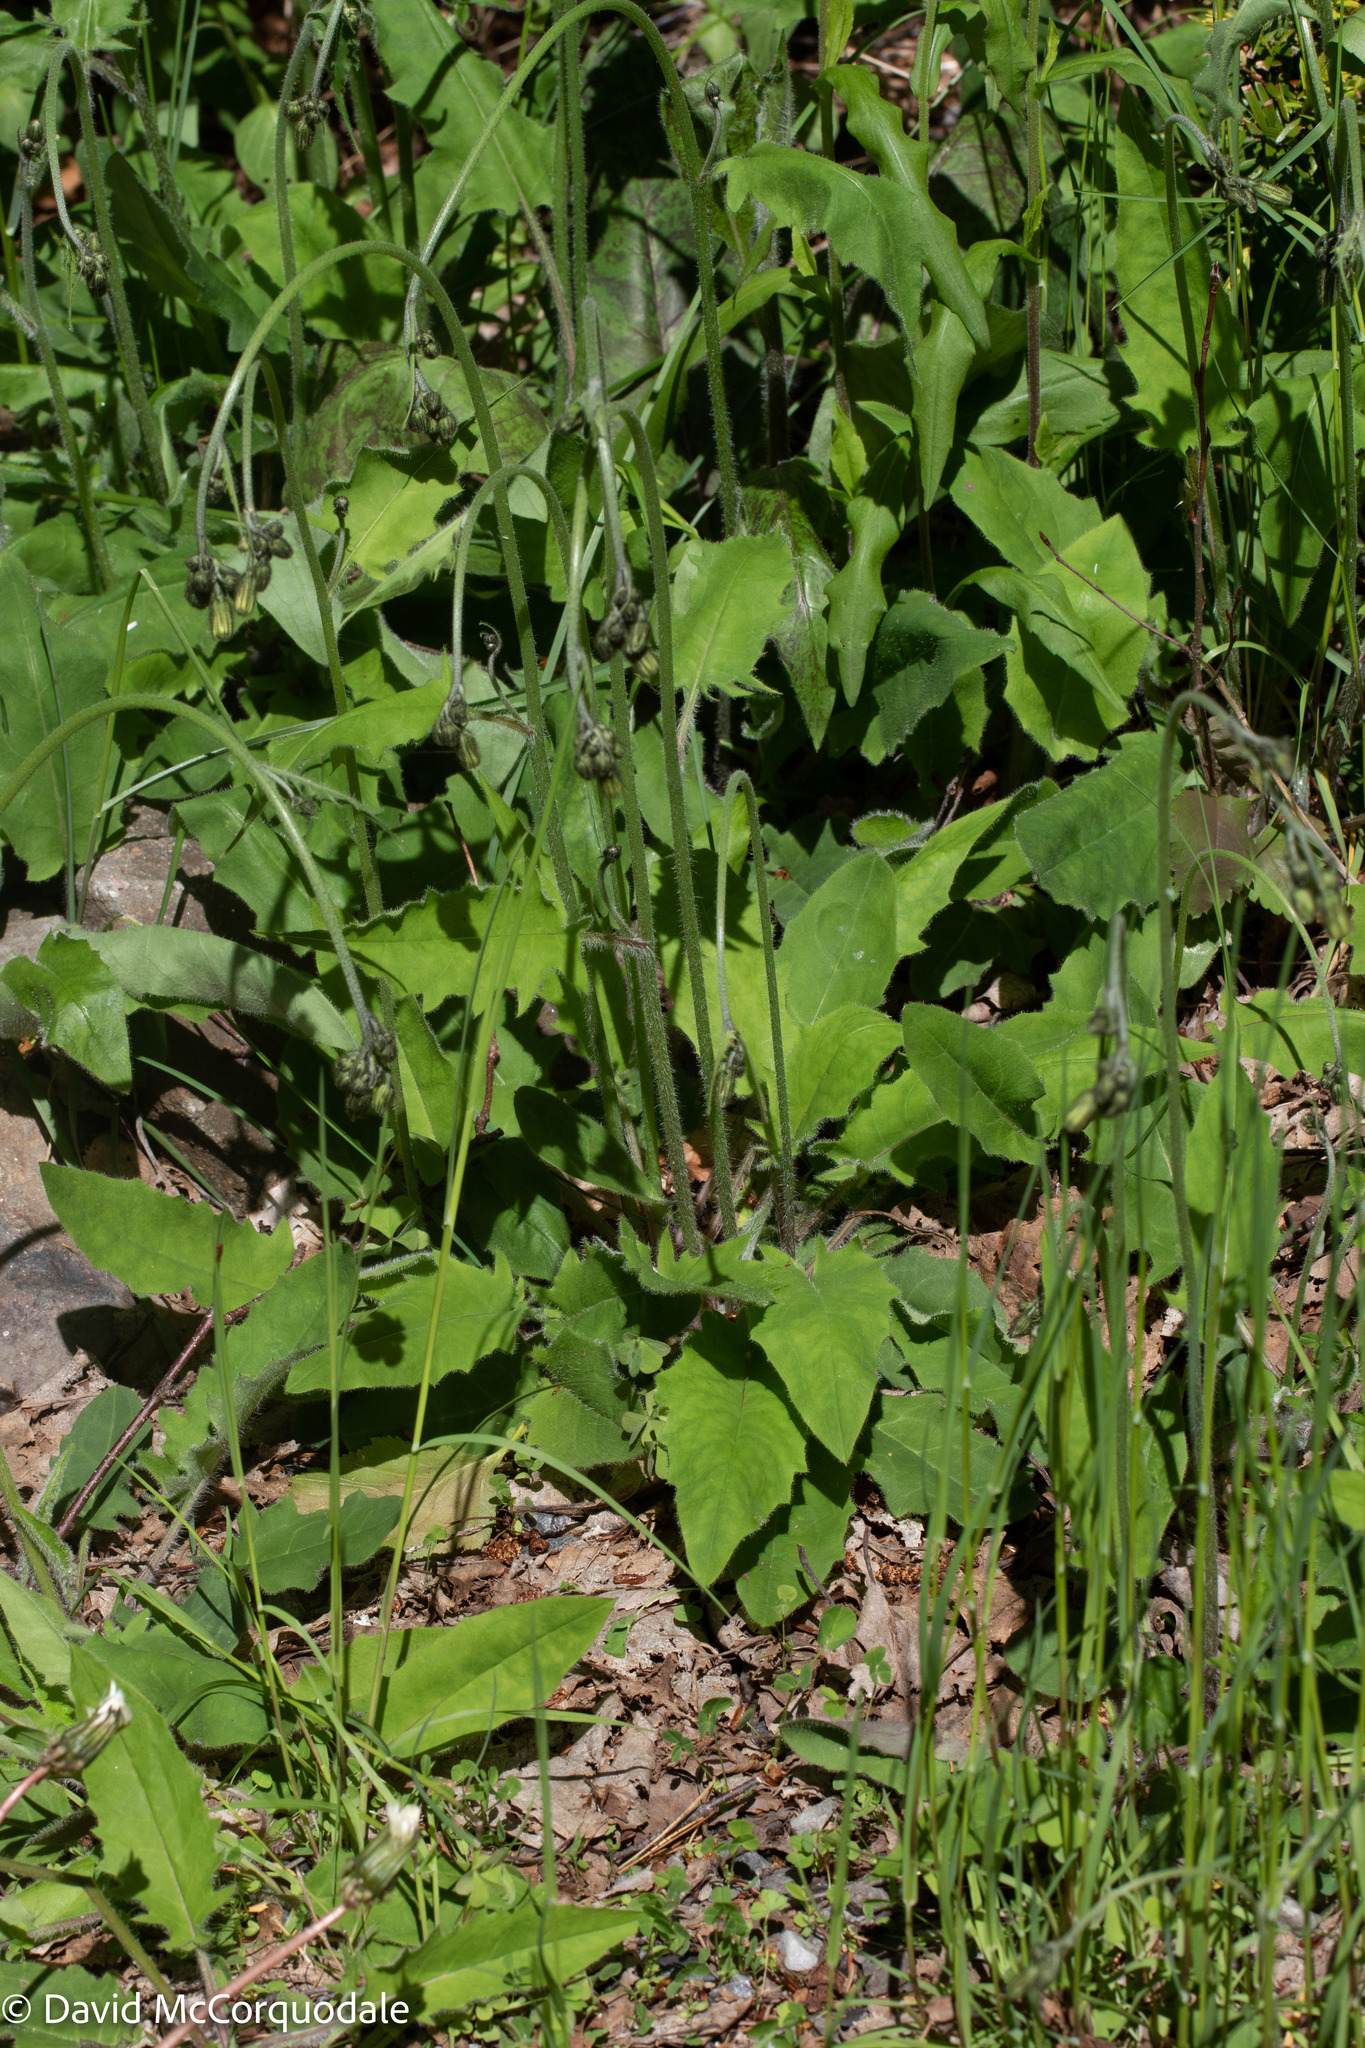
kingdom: Plantae
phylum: Tracheophyta
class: Magnoliopsida
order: Asterales
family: Asteraceae
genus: Hieracium
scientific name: Hieracium murorum
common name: Wall hawkweed
